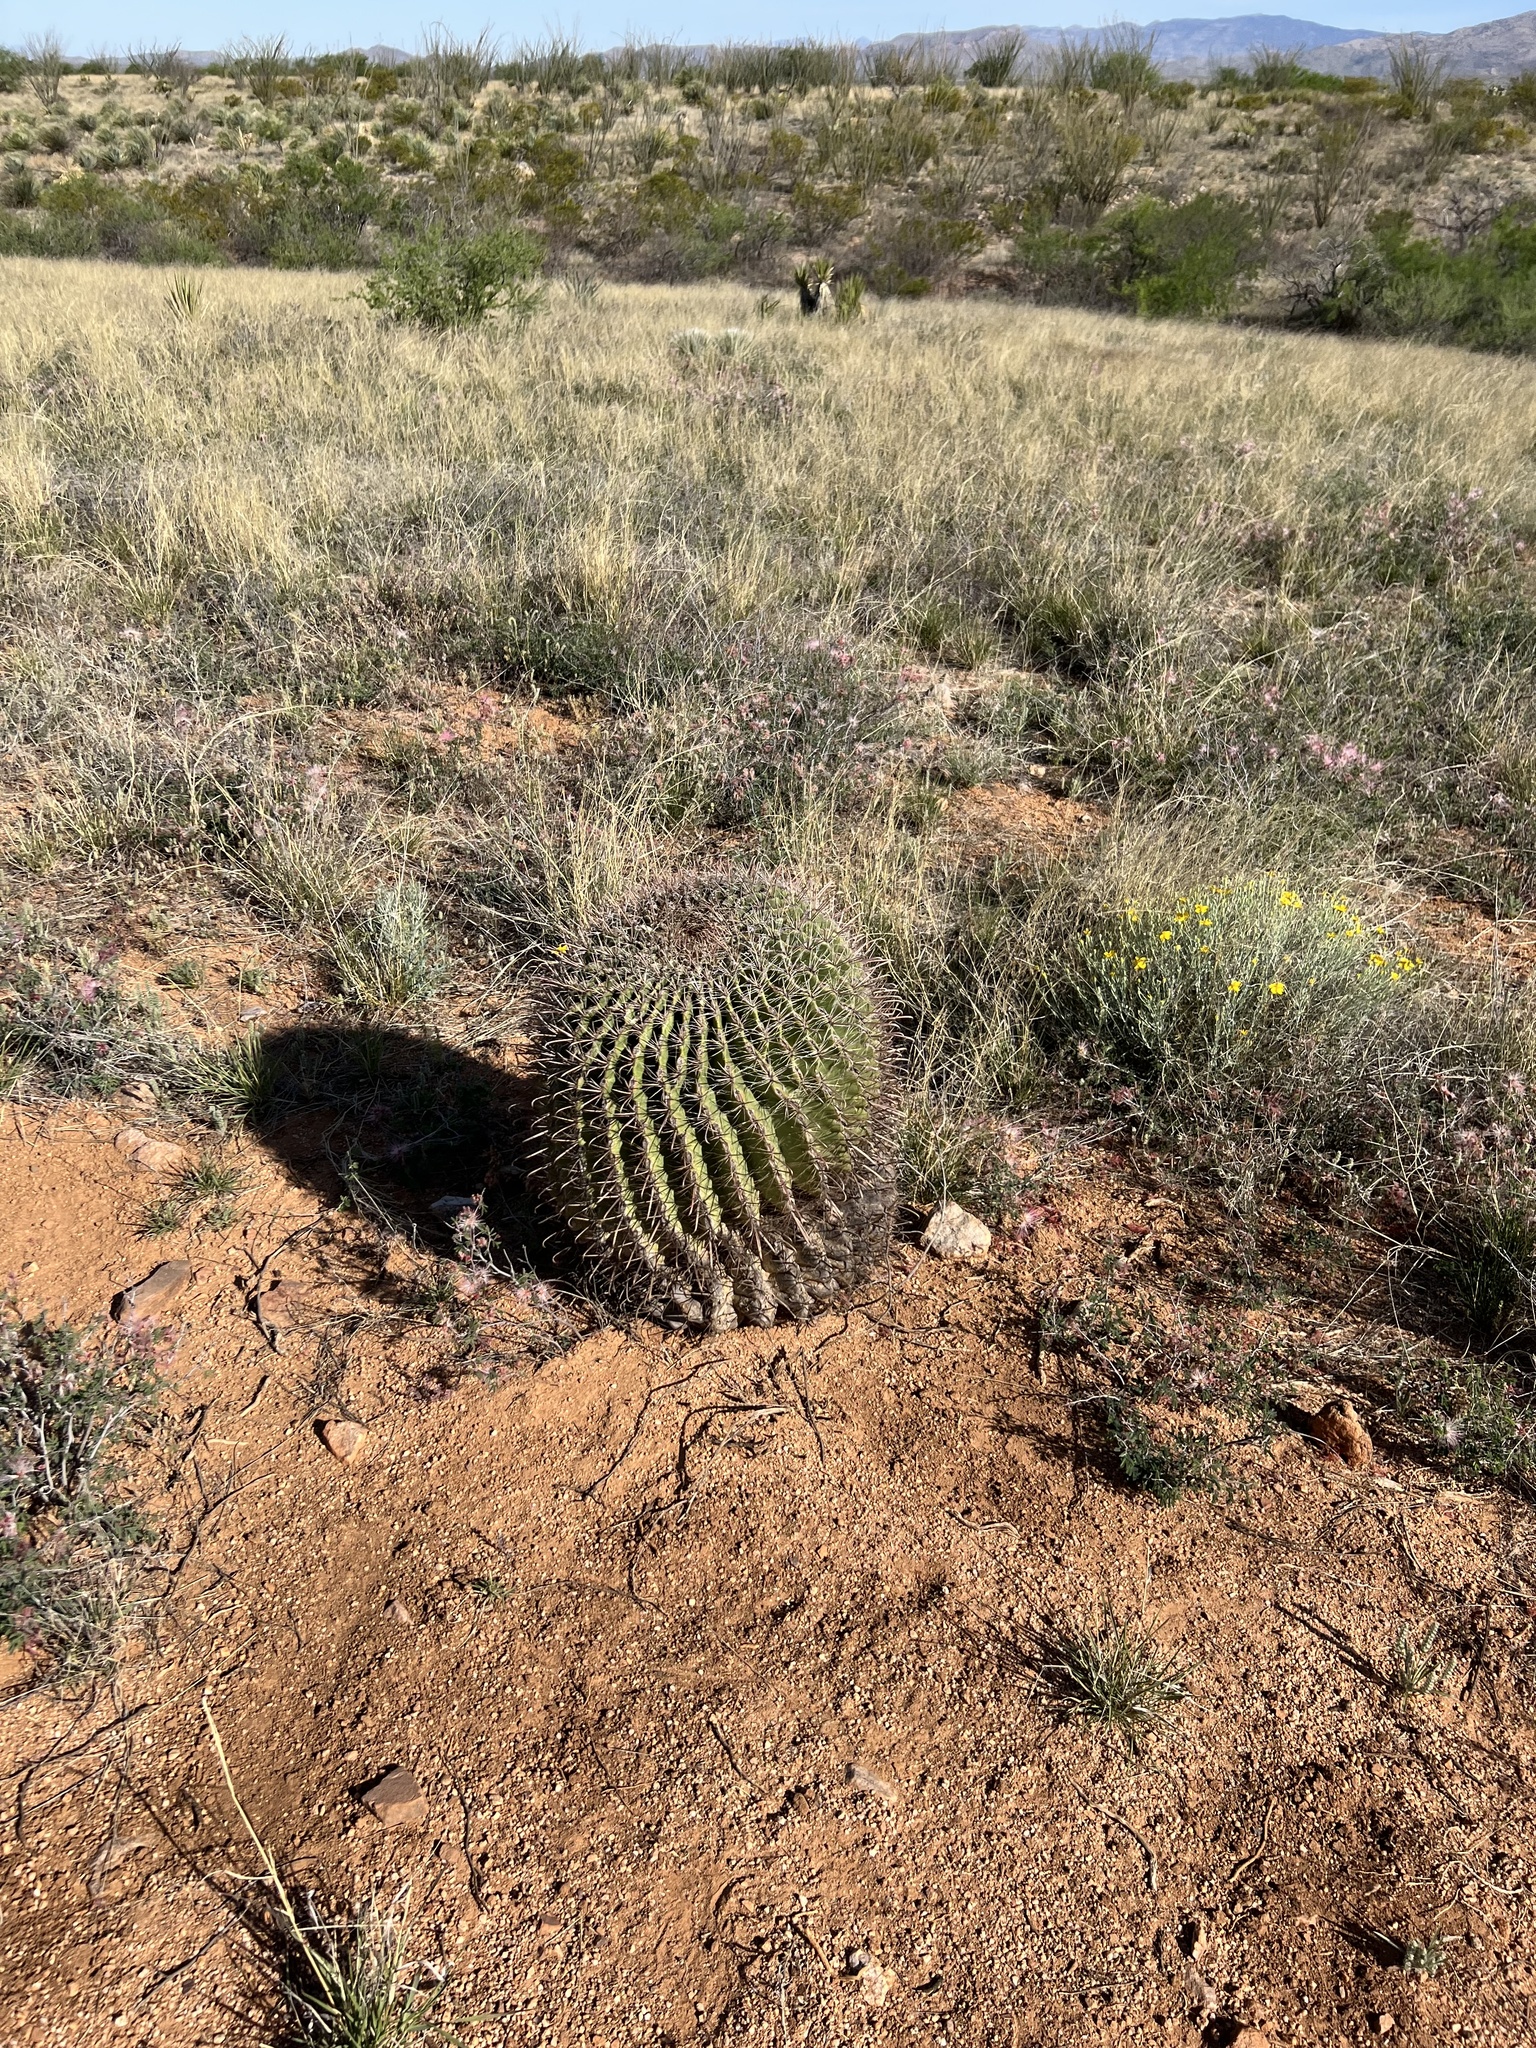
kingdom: Plantae
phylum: Tracheophyta
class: Magnoliopsida
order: Caryophyllales
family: Cactaceae
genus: Ferocactus
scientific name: Ferocactus wislizeni
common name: Candy barrel cactus
